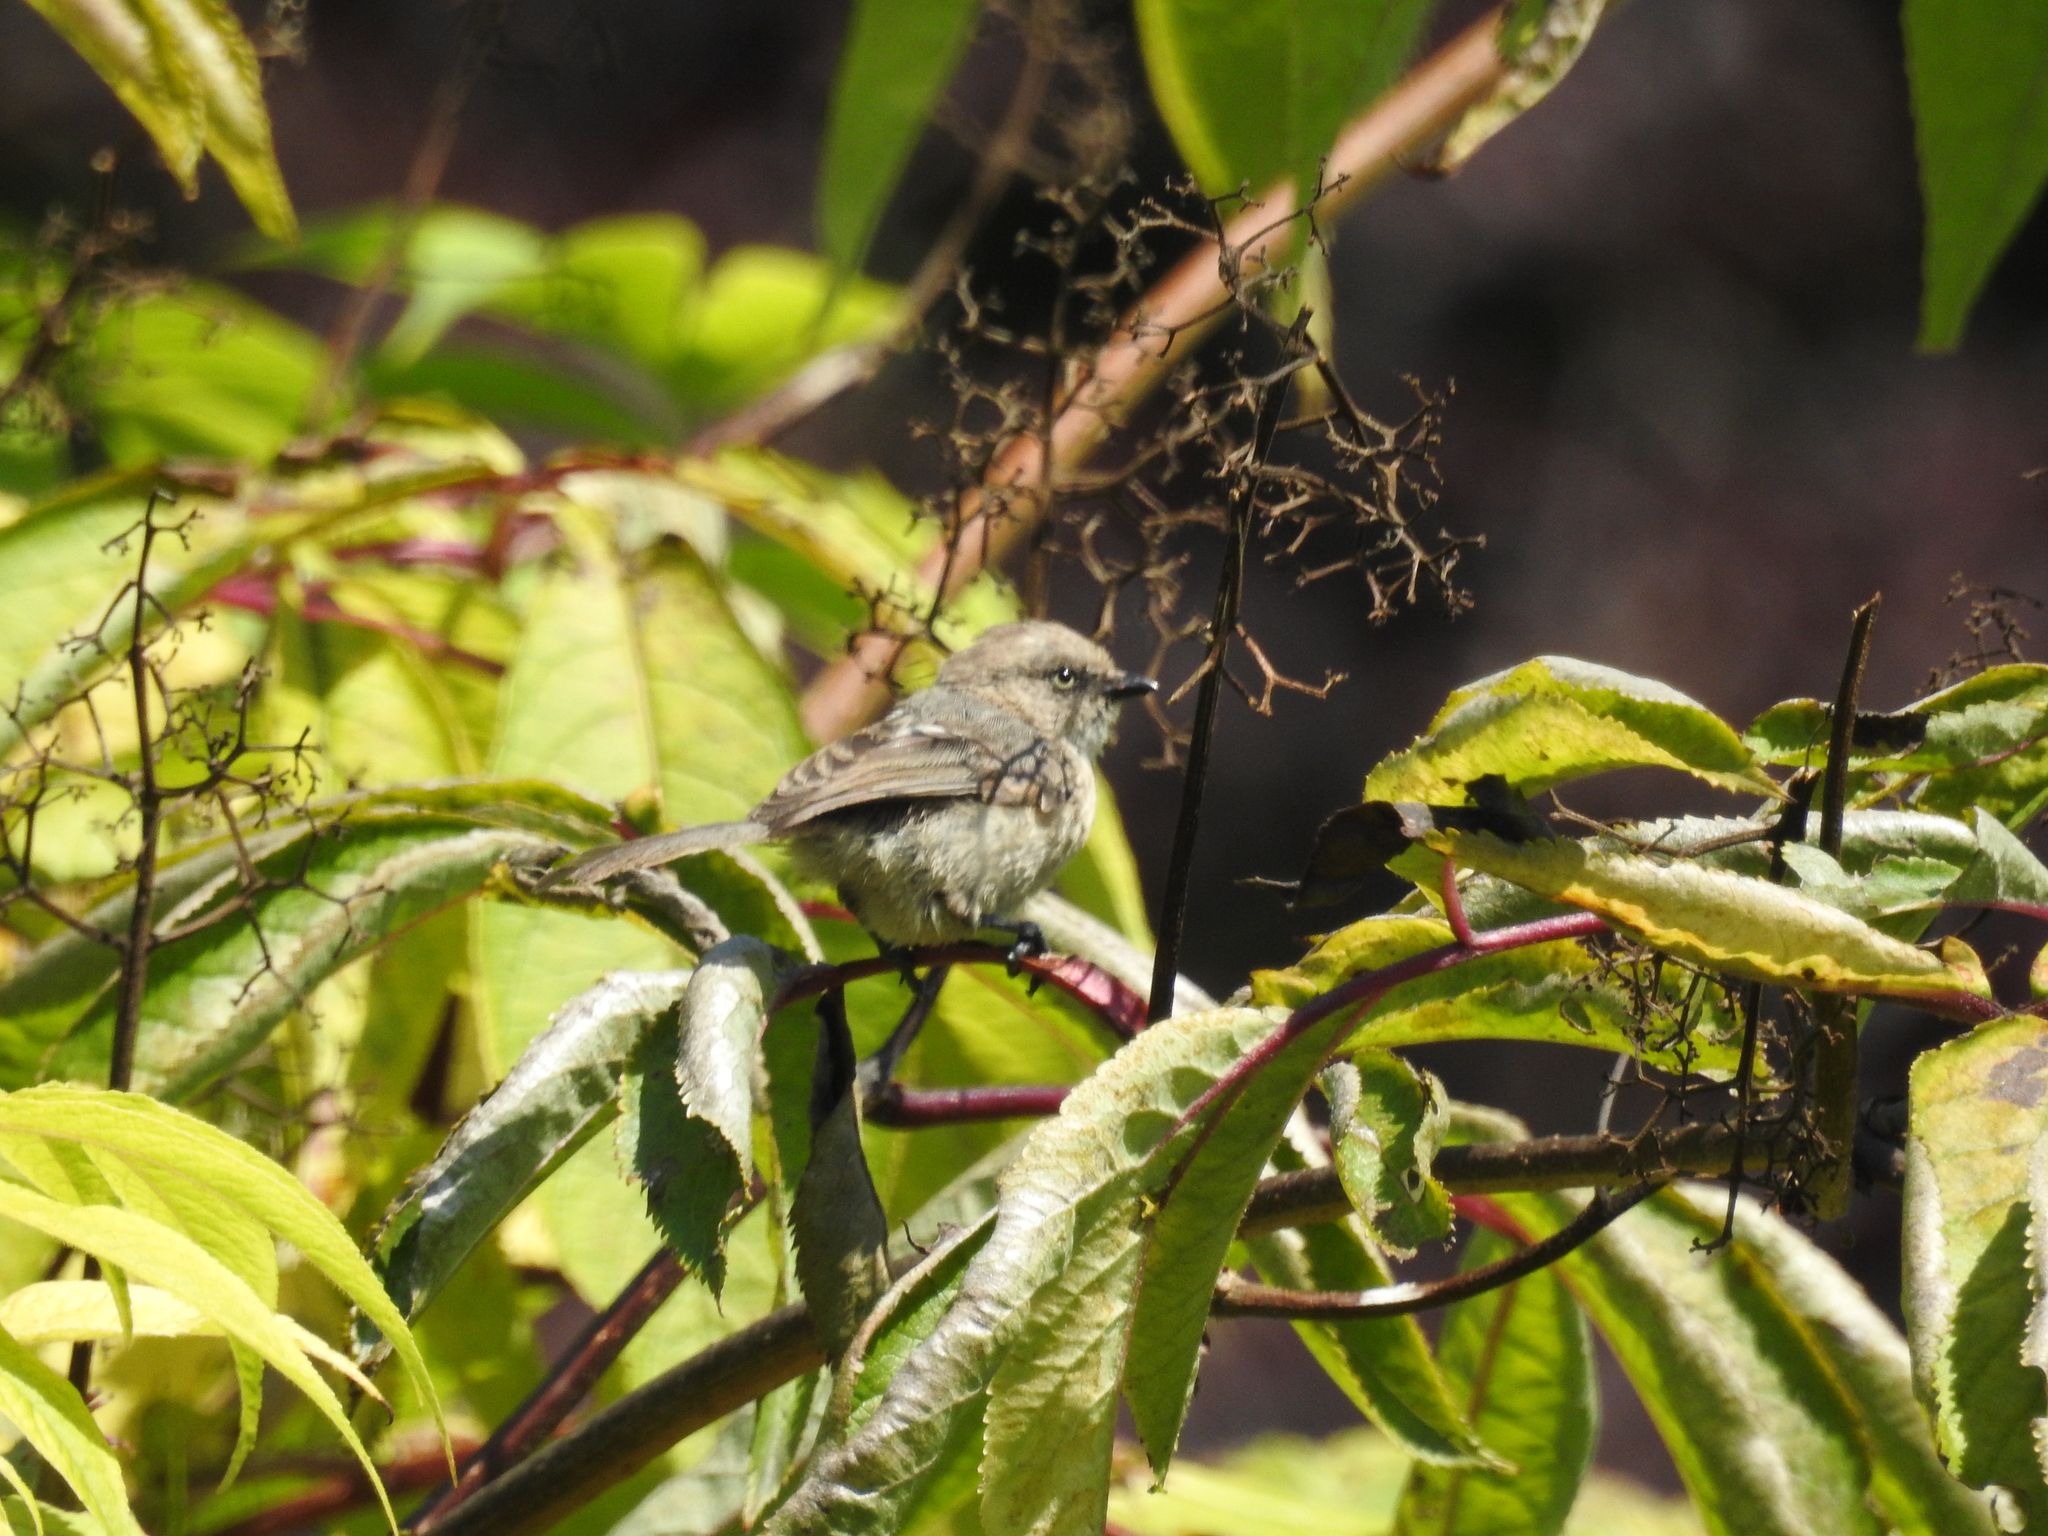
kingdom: Animalia
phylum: Chordata
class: Aves
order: Passeriformes
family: Aegithalidae
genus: Psaltriparus
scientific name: Psaltriparus minimus
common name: American bushtit
